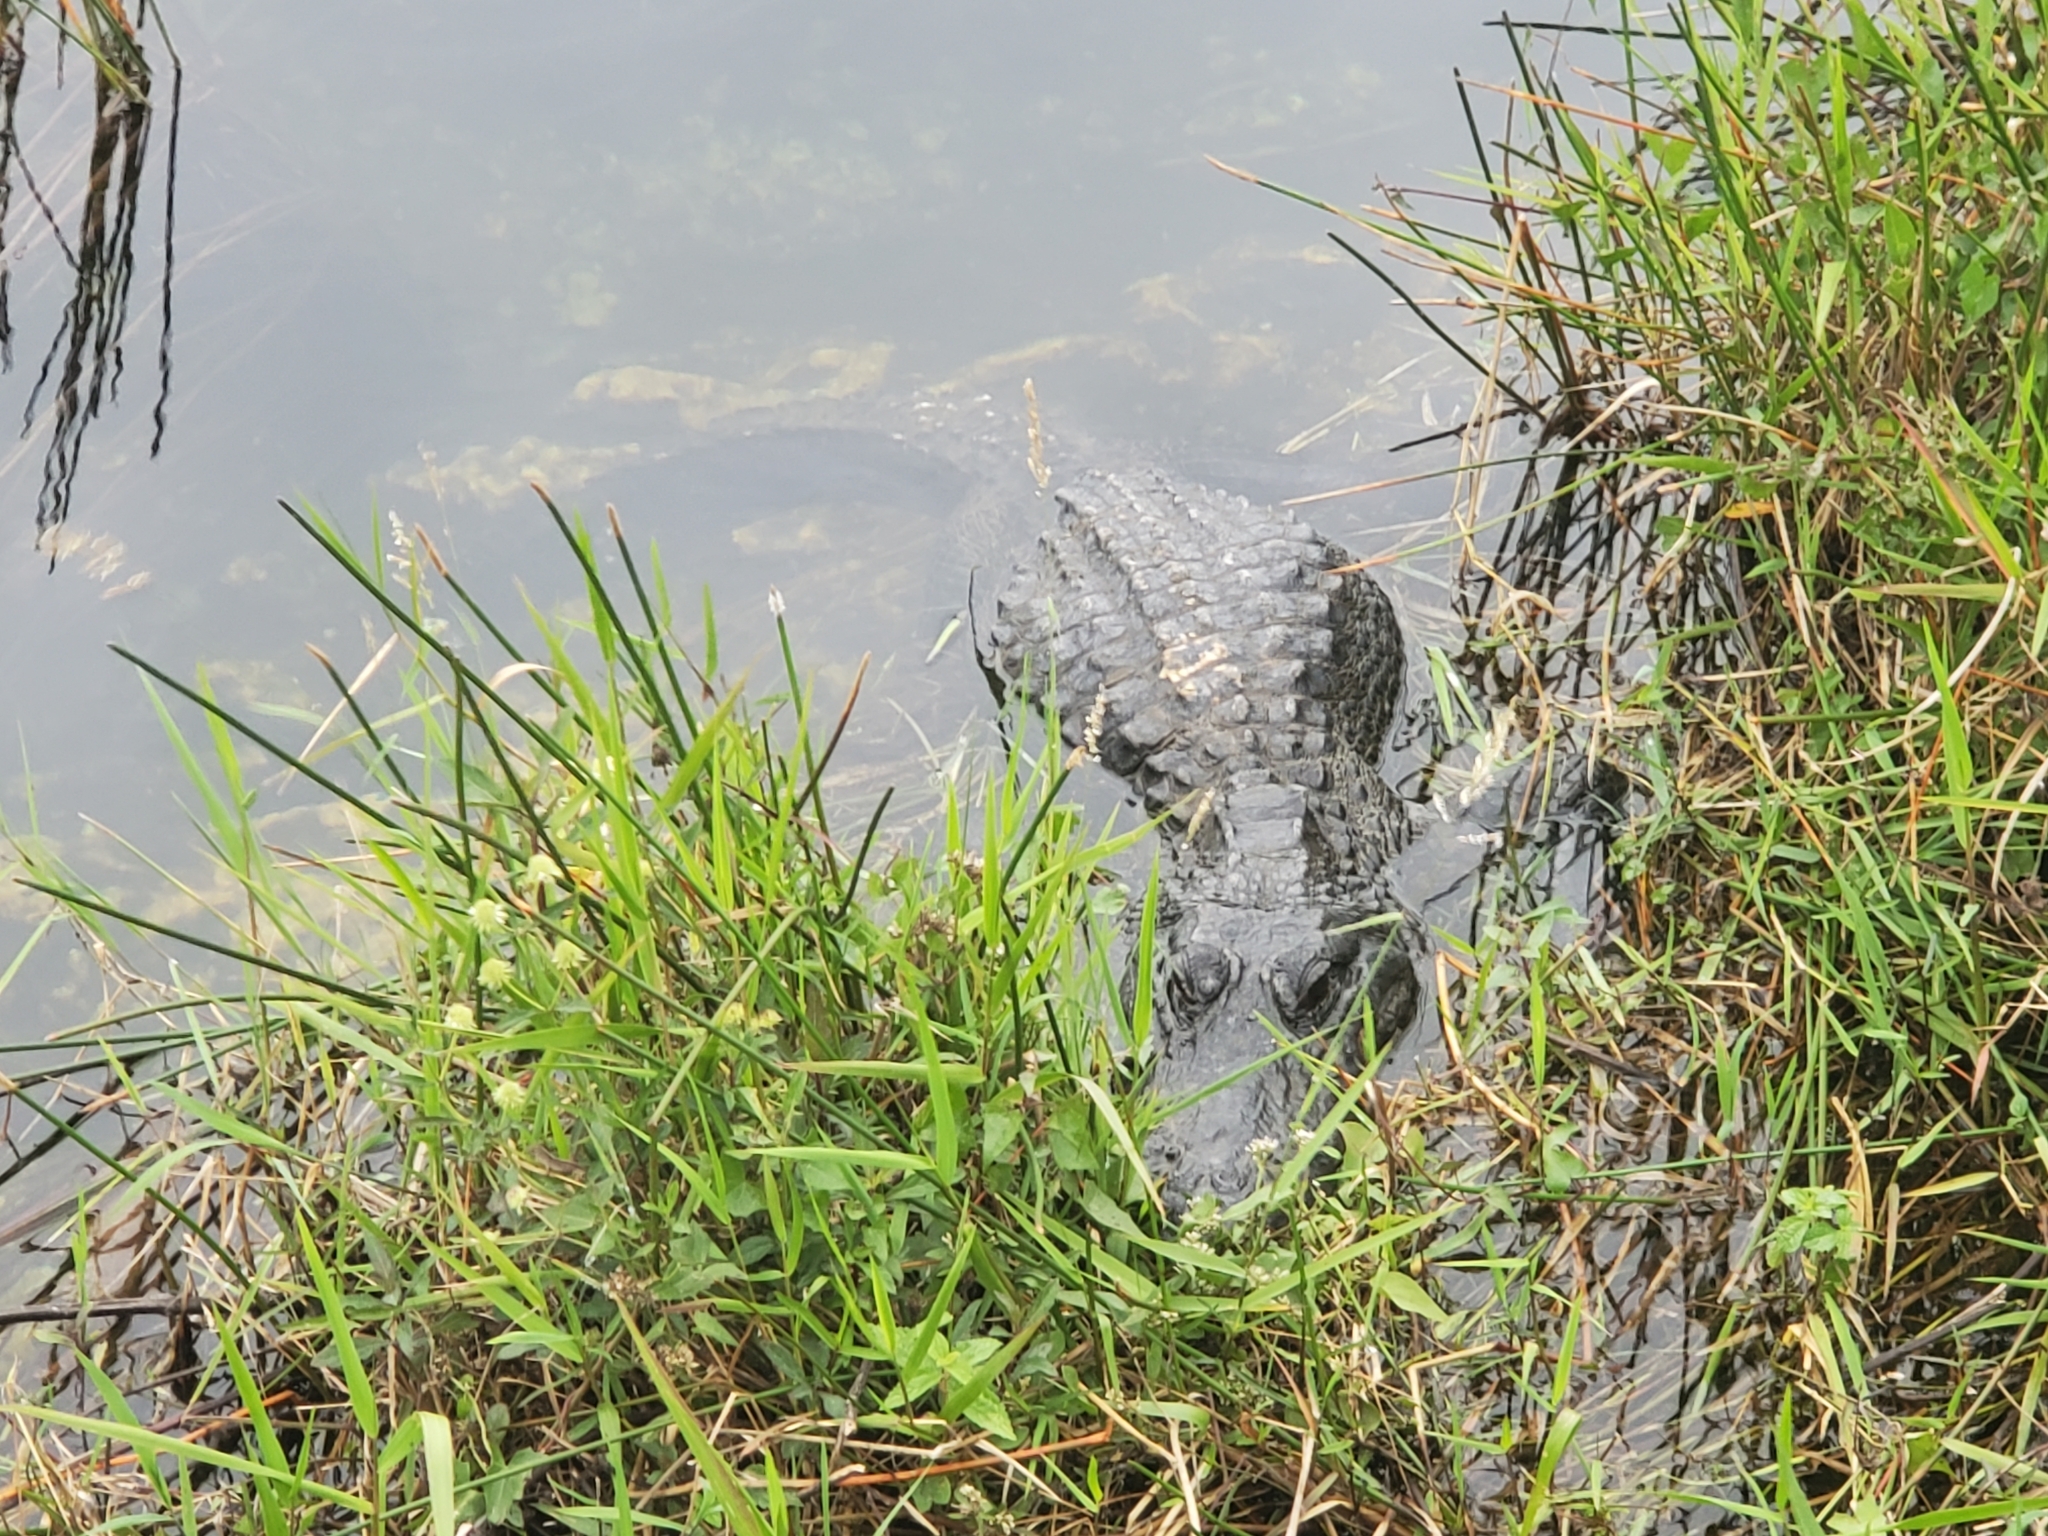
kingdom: Animalia
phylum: Chordata
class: Crocodylia
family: Alligatoridae
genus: Alligator
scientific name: Alligator mississippiensis
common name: American alligator
